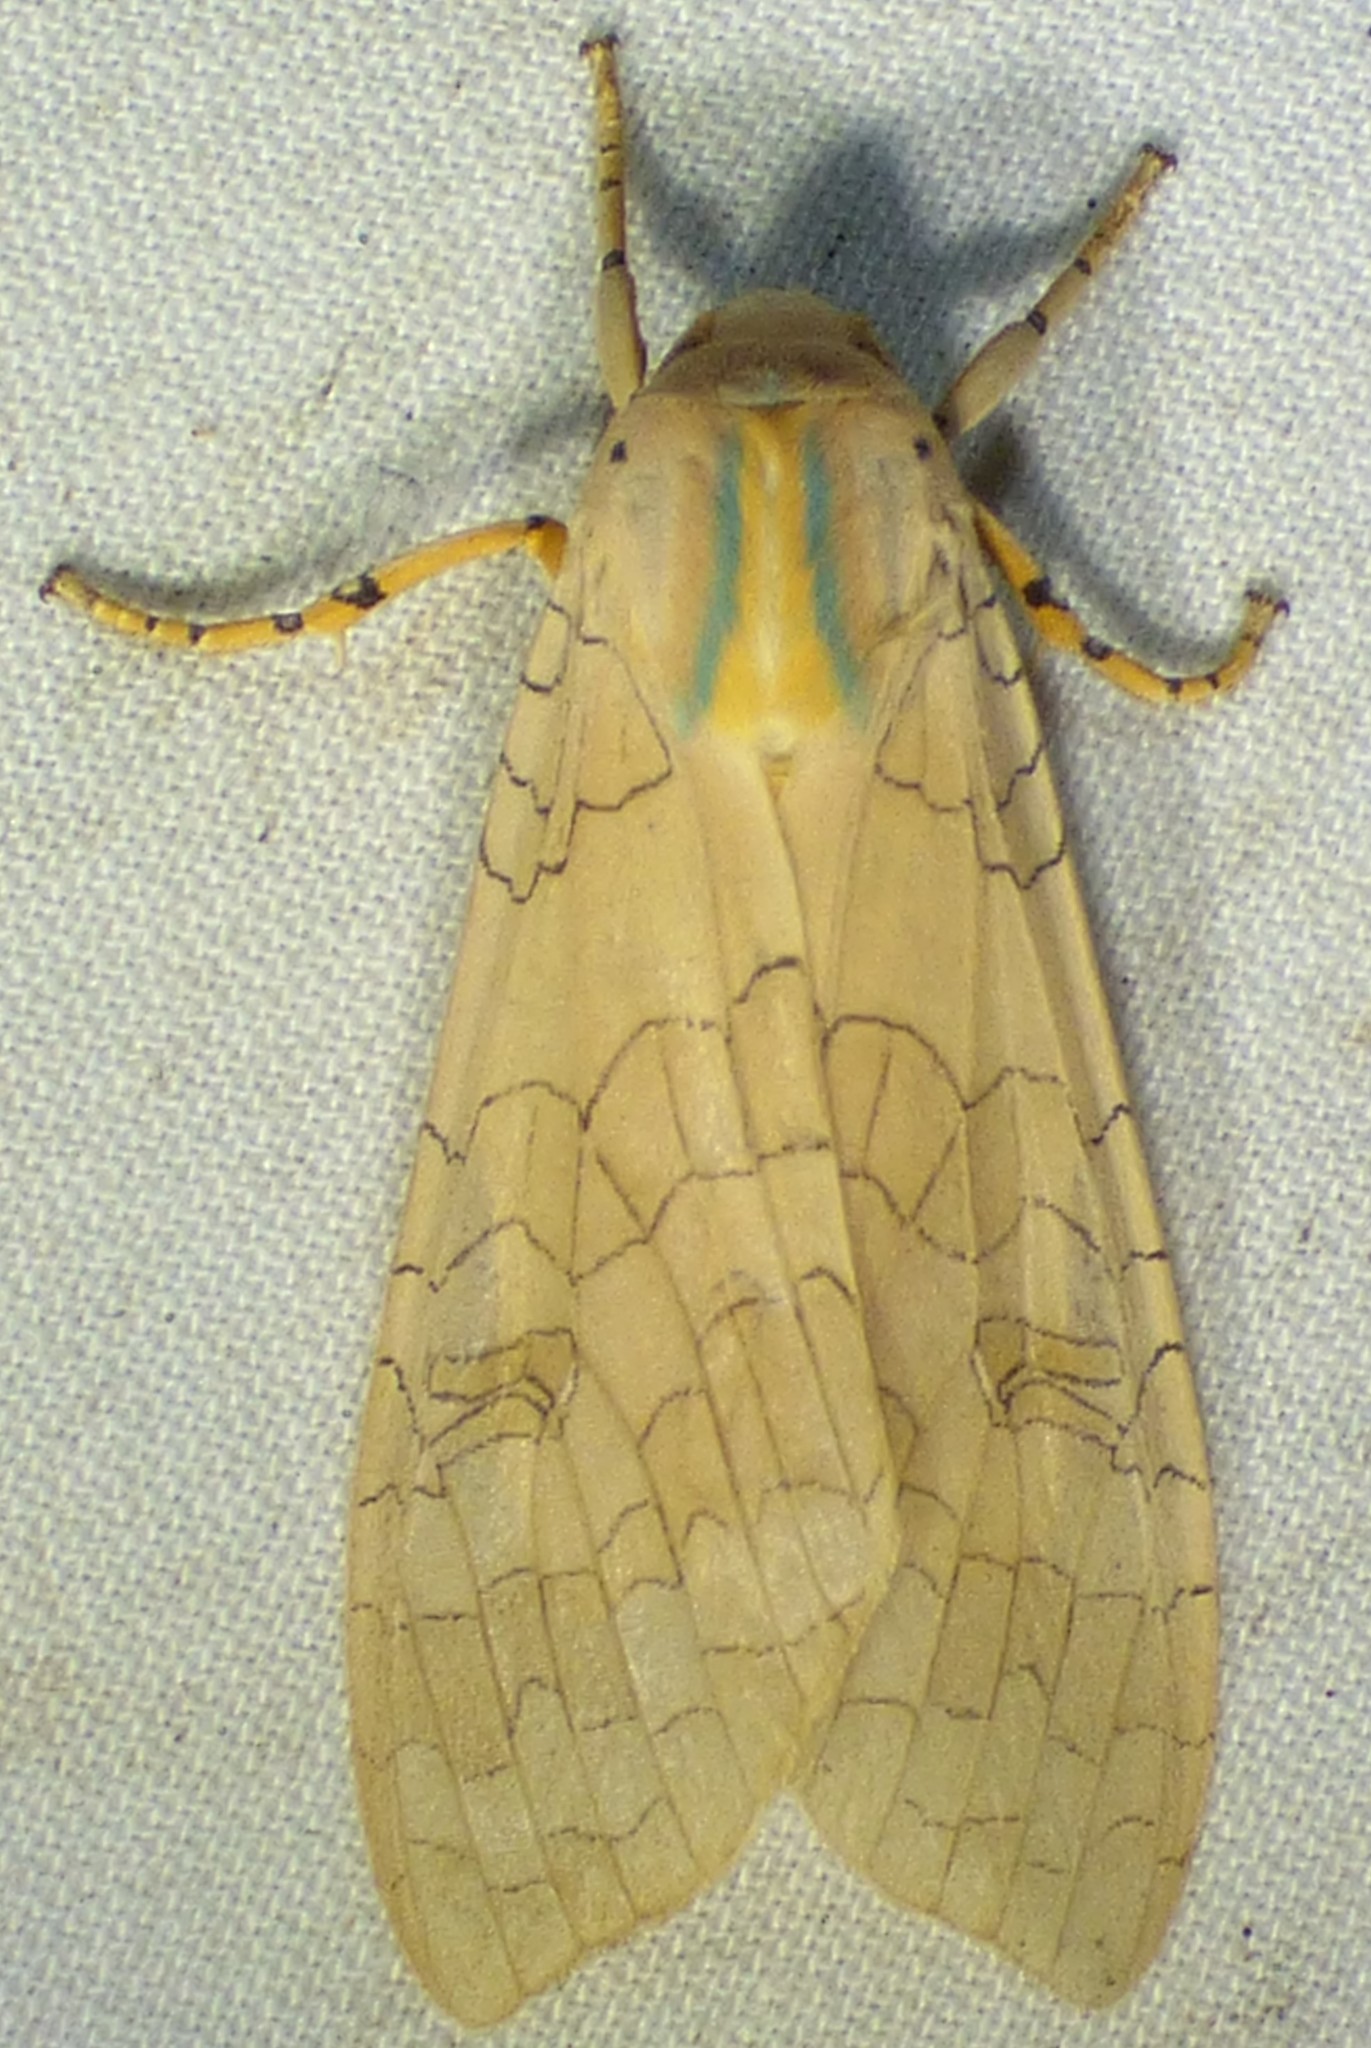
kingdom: Animalia
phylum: Arthropoda
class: Insecta
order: Lepidoptera
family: Erebidae
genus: Halysidota
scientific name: Halysidota
